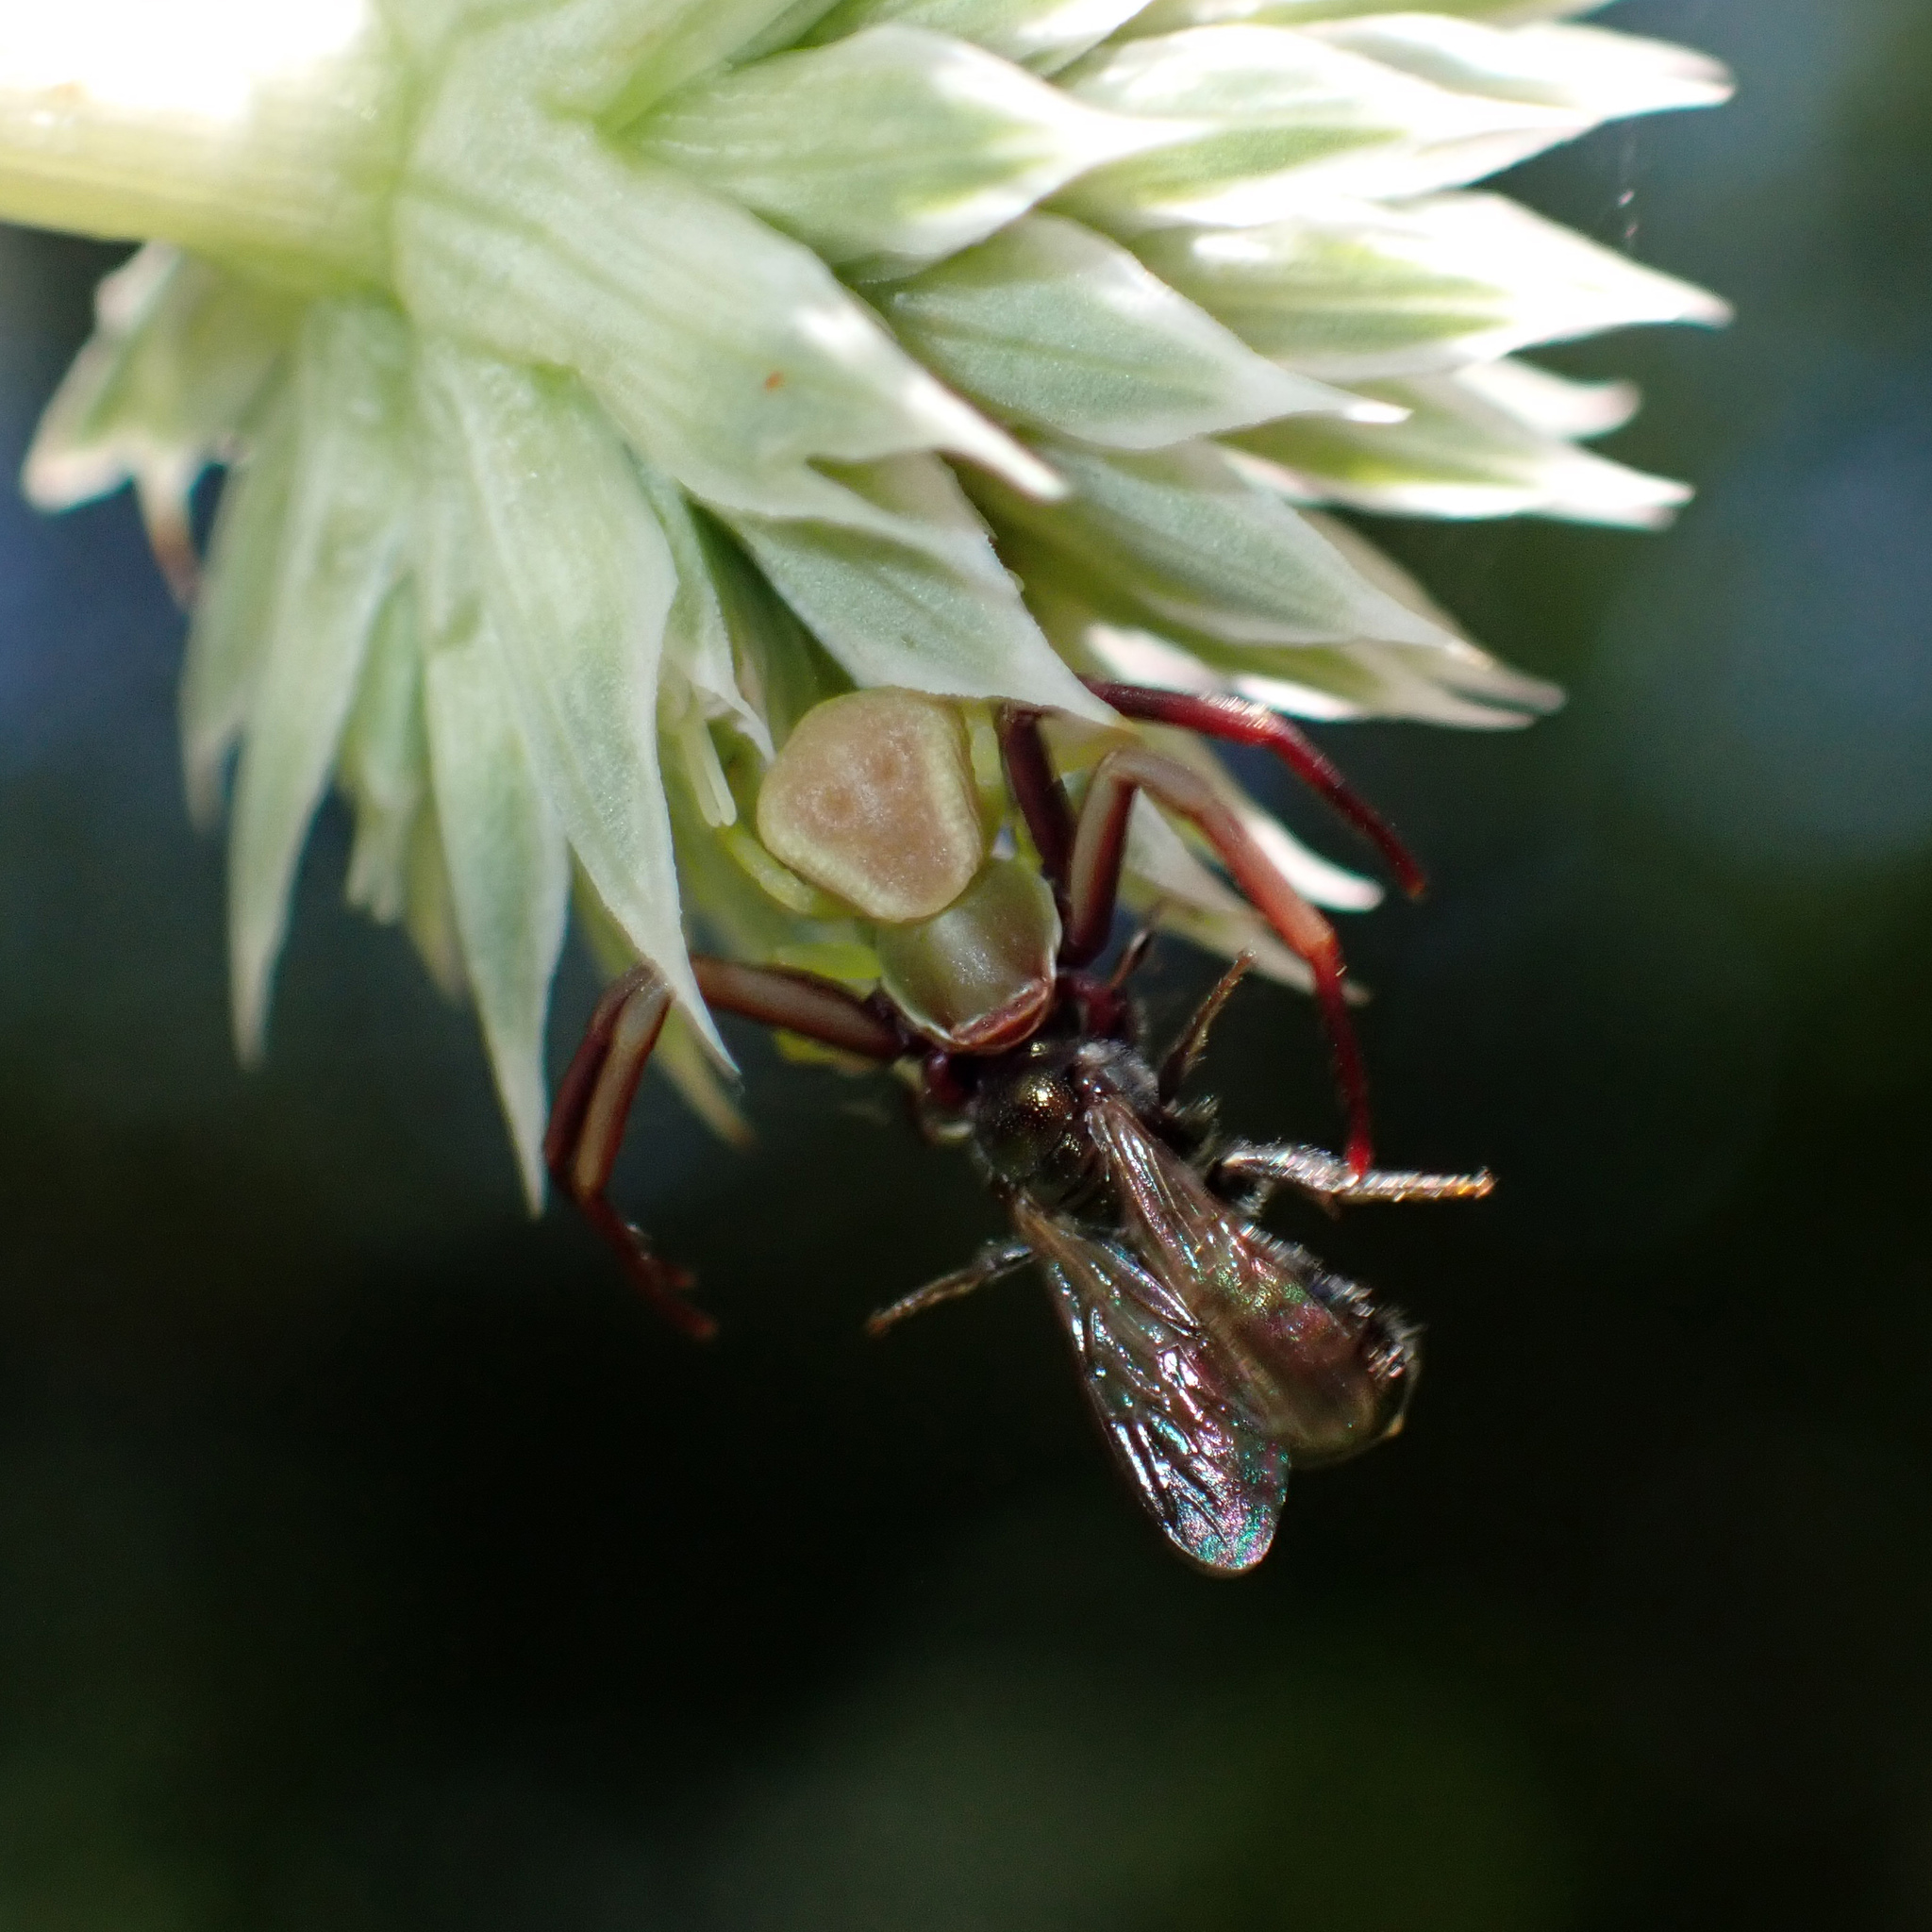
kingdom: Animalia
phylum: Arthropoda
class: Arachnida
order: Araneae
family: Thomisidae
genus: Misumenoides
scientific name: Misumenoides formosipes
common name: White-banded crab spider
